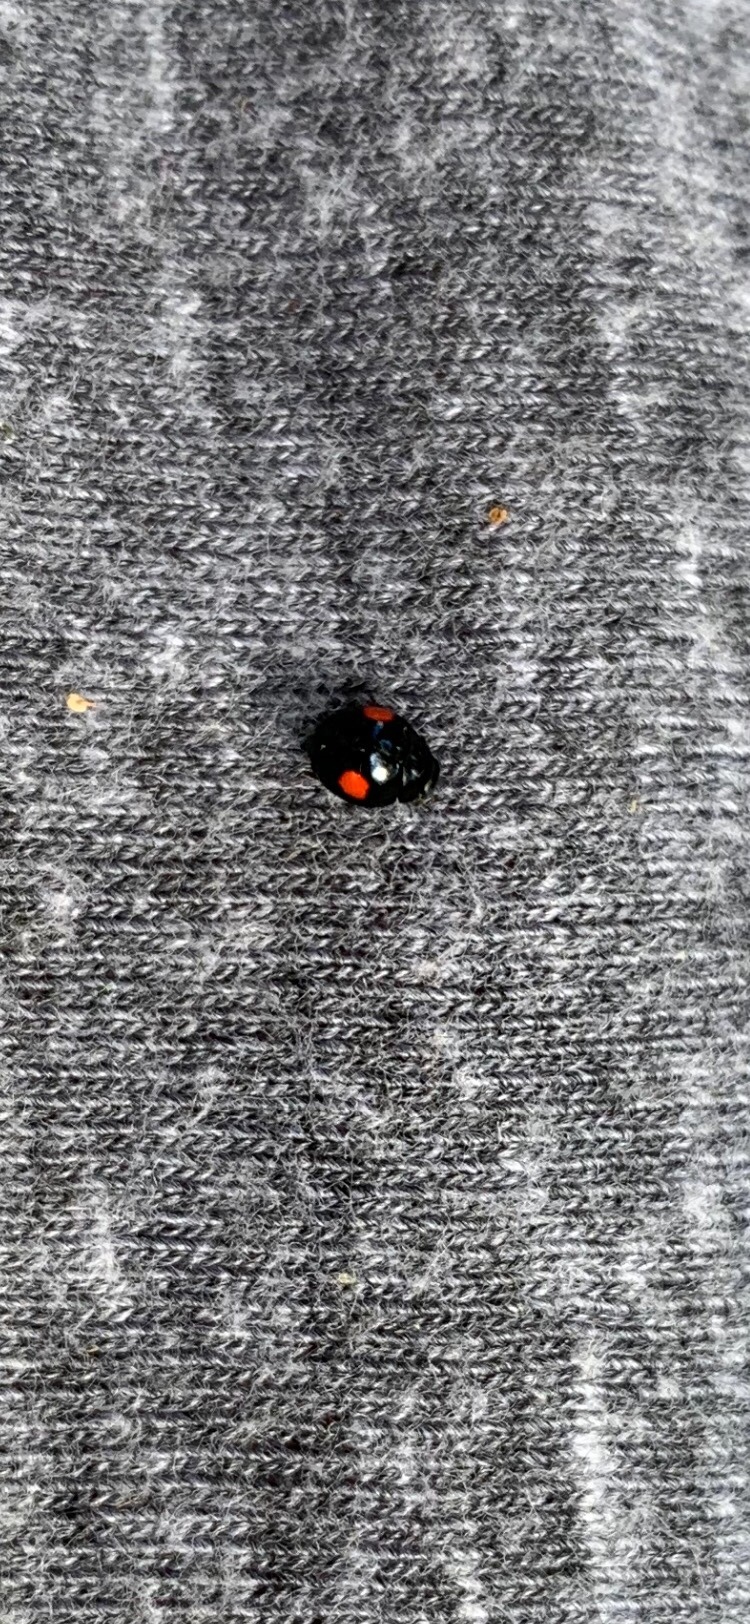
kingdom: Animalia
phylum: Arthropoda
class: Insecta
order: Coleoptera
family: Coccinellidae
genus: Chilocorus
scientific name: Chilocorus stigma
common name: Twicestabbed lady beetle
